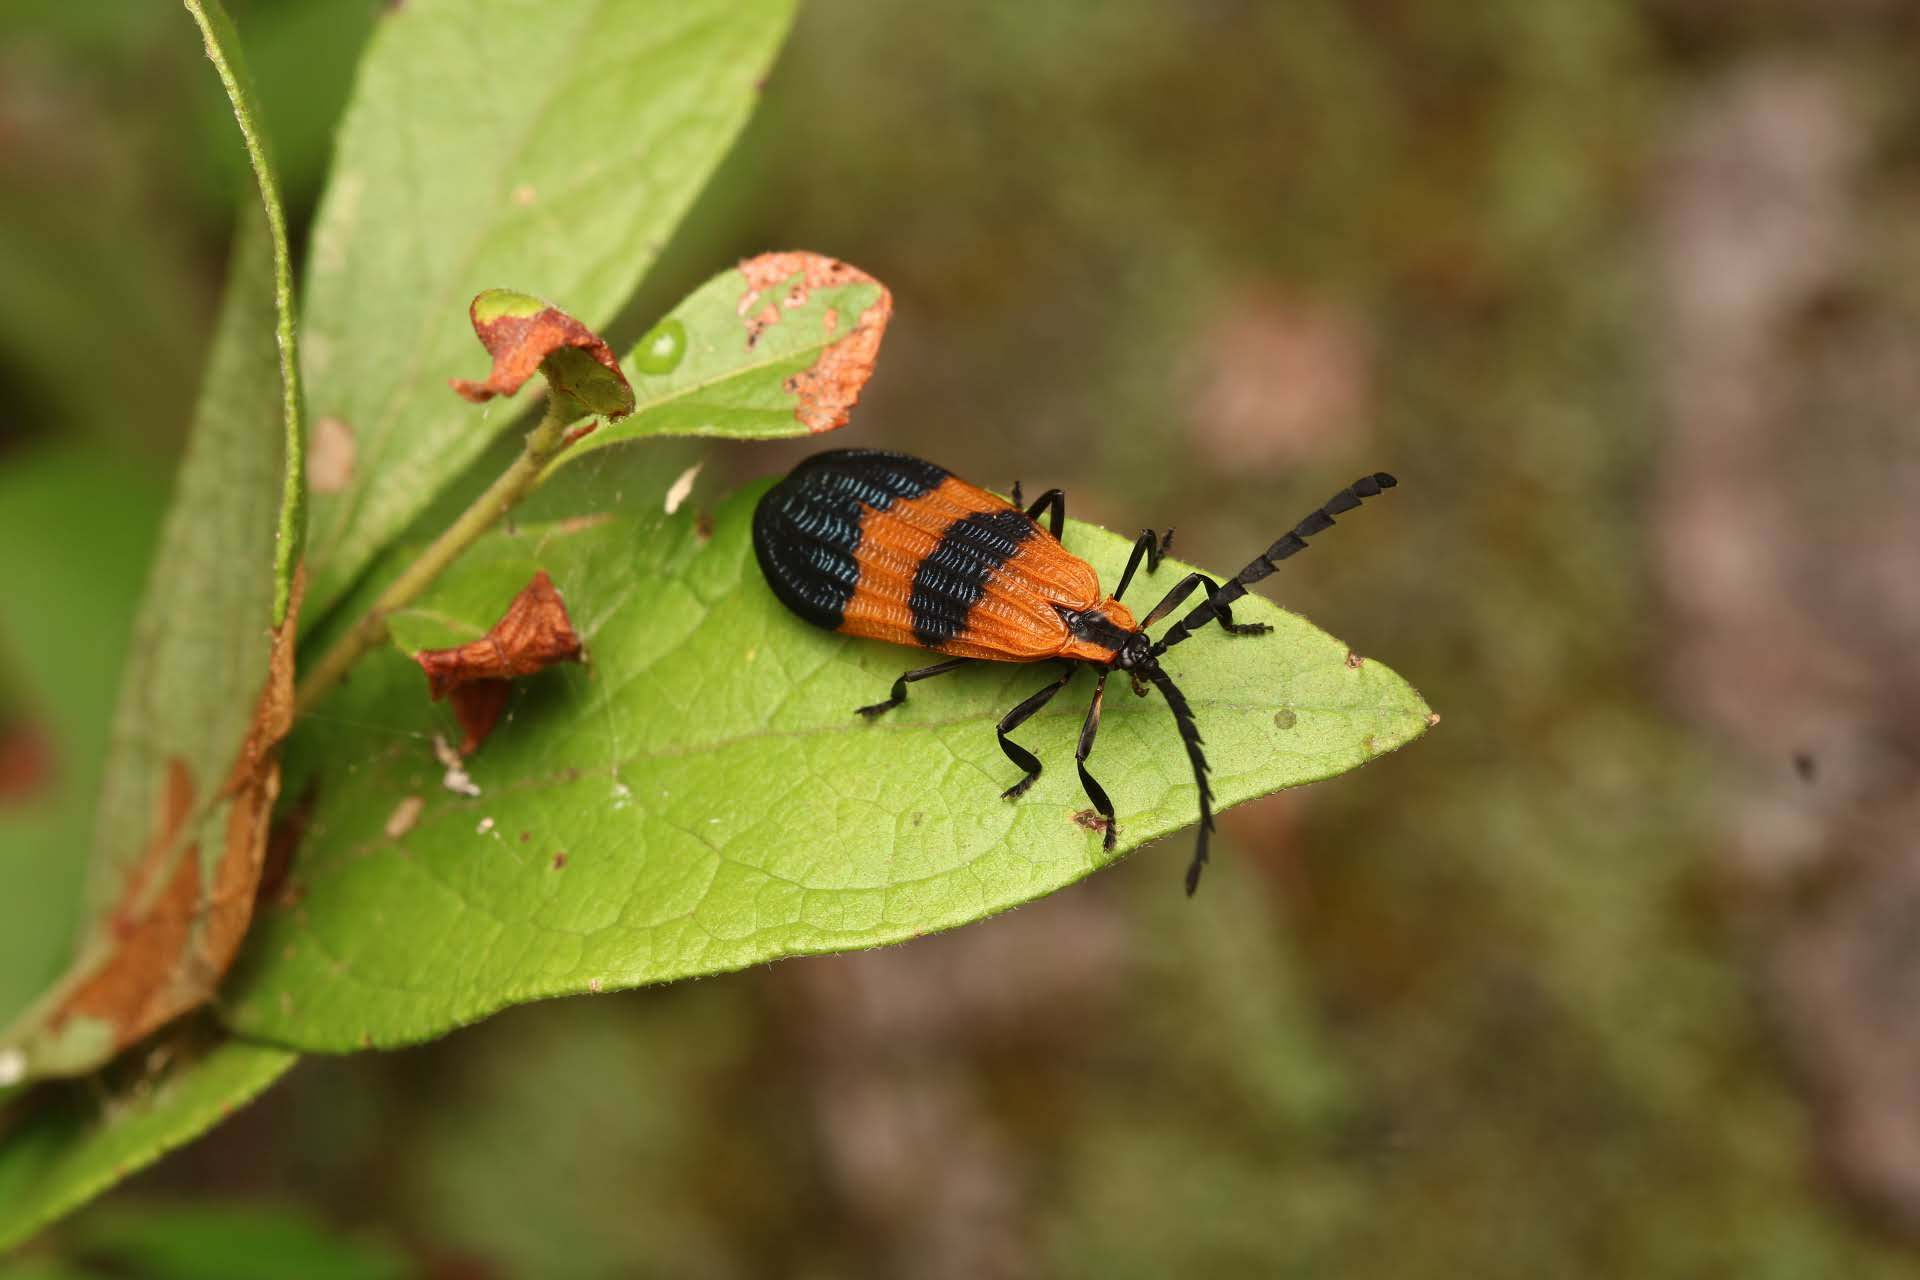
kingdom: Animalia
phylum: Arthropoda
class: Insecta
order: Coleoptera
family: Lycidae
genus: Calopteron
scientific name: Calopteron terminale
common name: End band net-winged beetle
